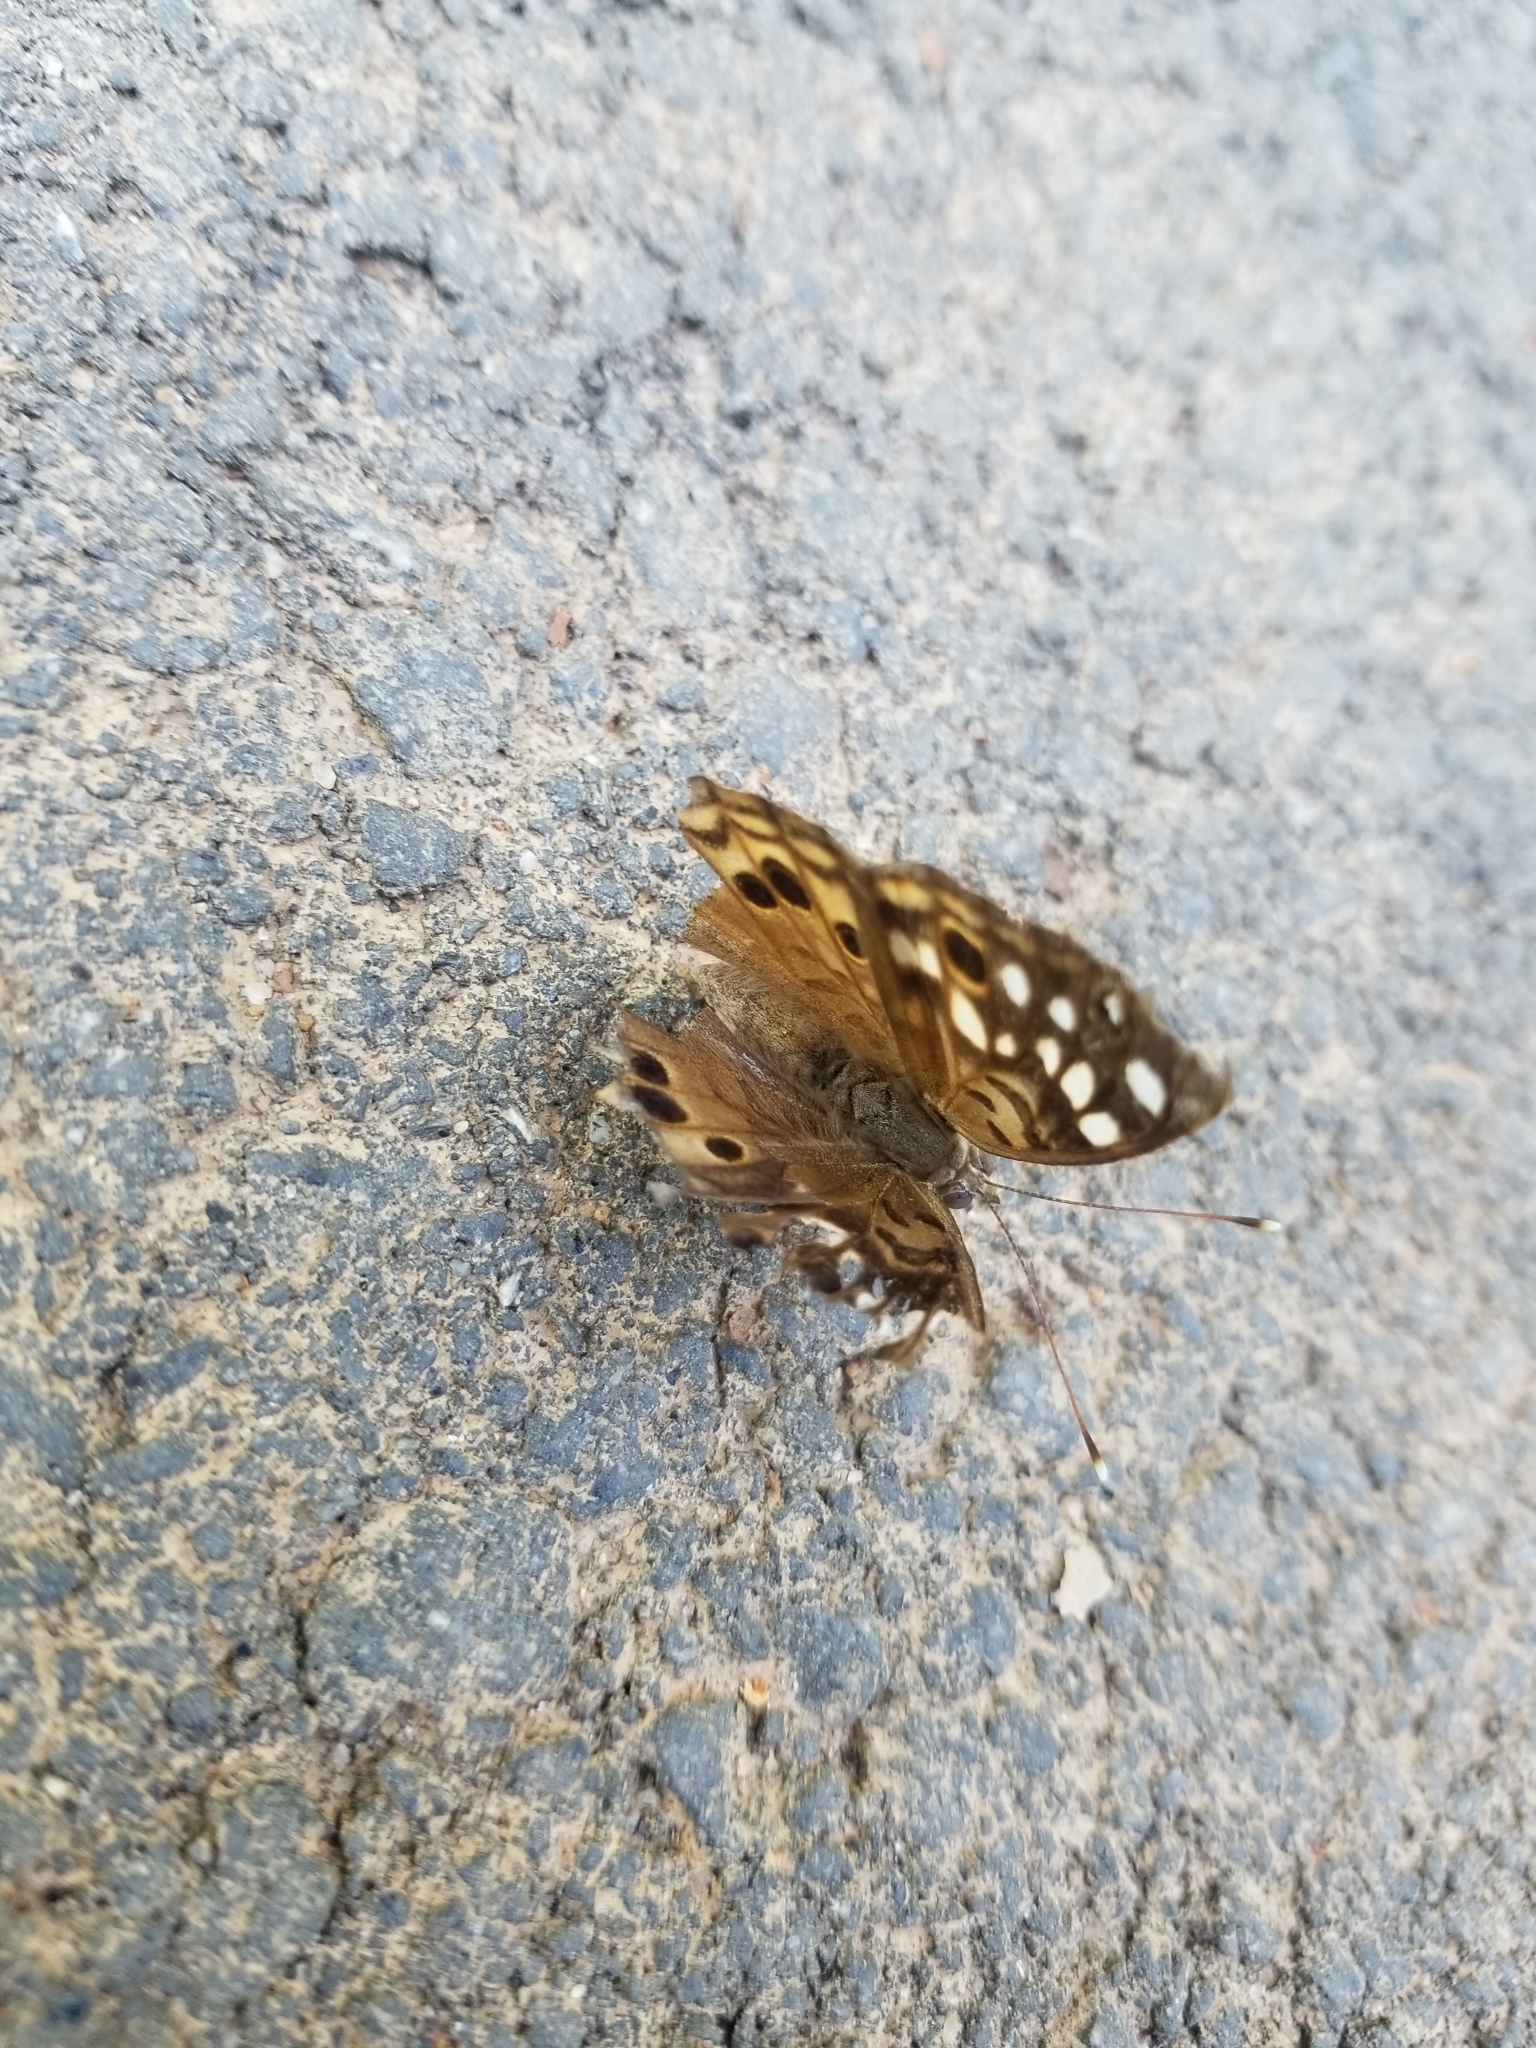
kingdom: Animalia
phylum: Arthropoda
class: Insecta
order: Lepidoptera
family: Nymphalidae
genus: Asterocampa
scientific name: Asterocampa celtis
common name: Hackberry emperor
